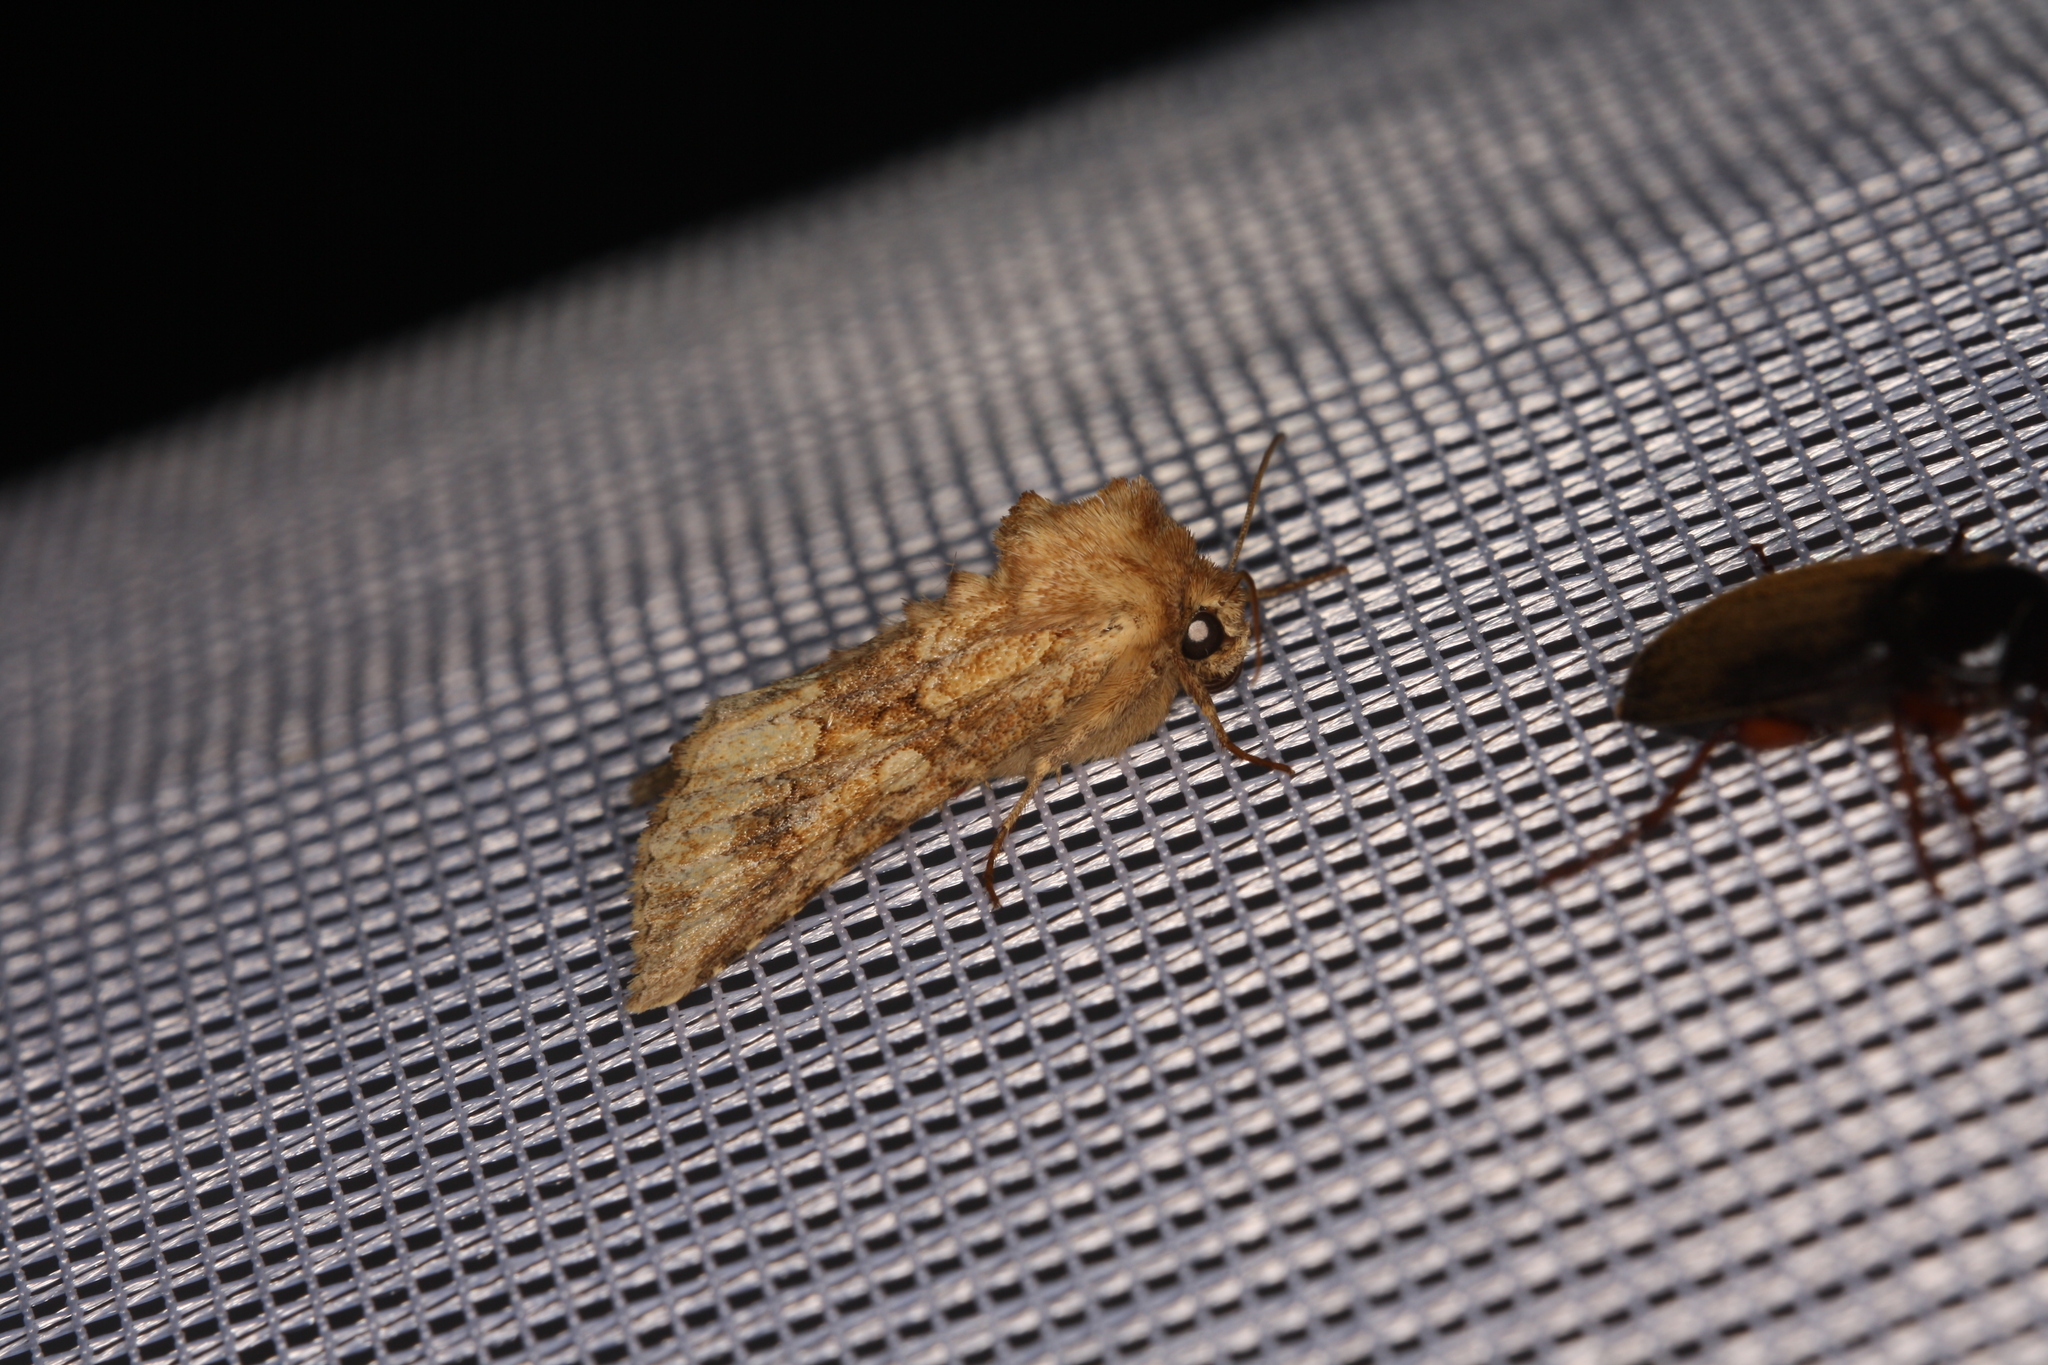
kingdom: Animalia
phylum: Arthropoda
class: Insecta
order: Lepidoptera
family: Noctuidae
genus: Conisania
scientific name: Conisania luteago
